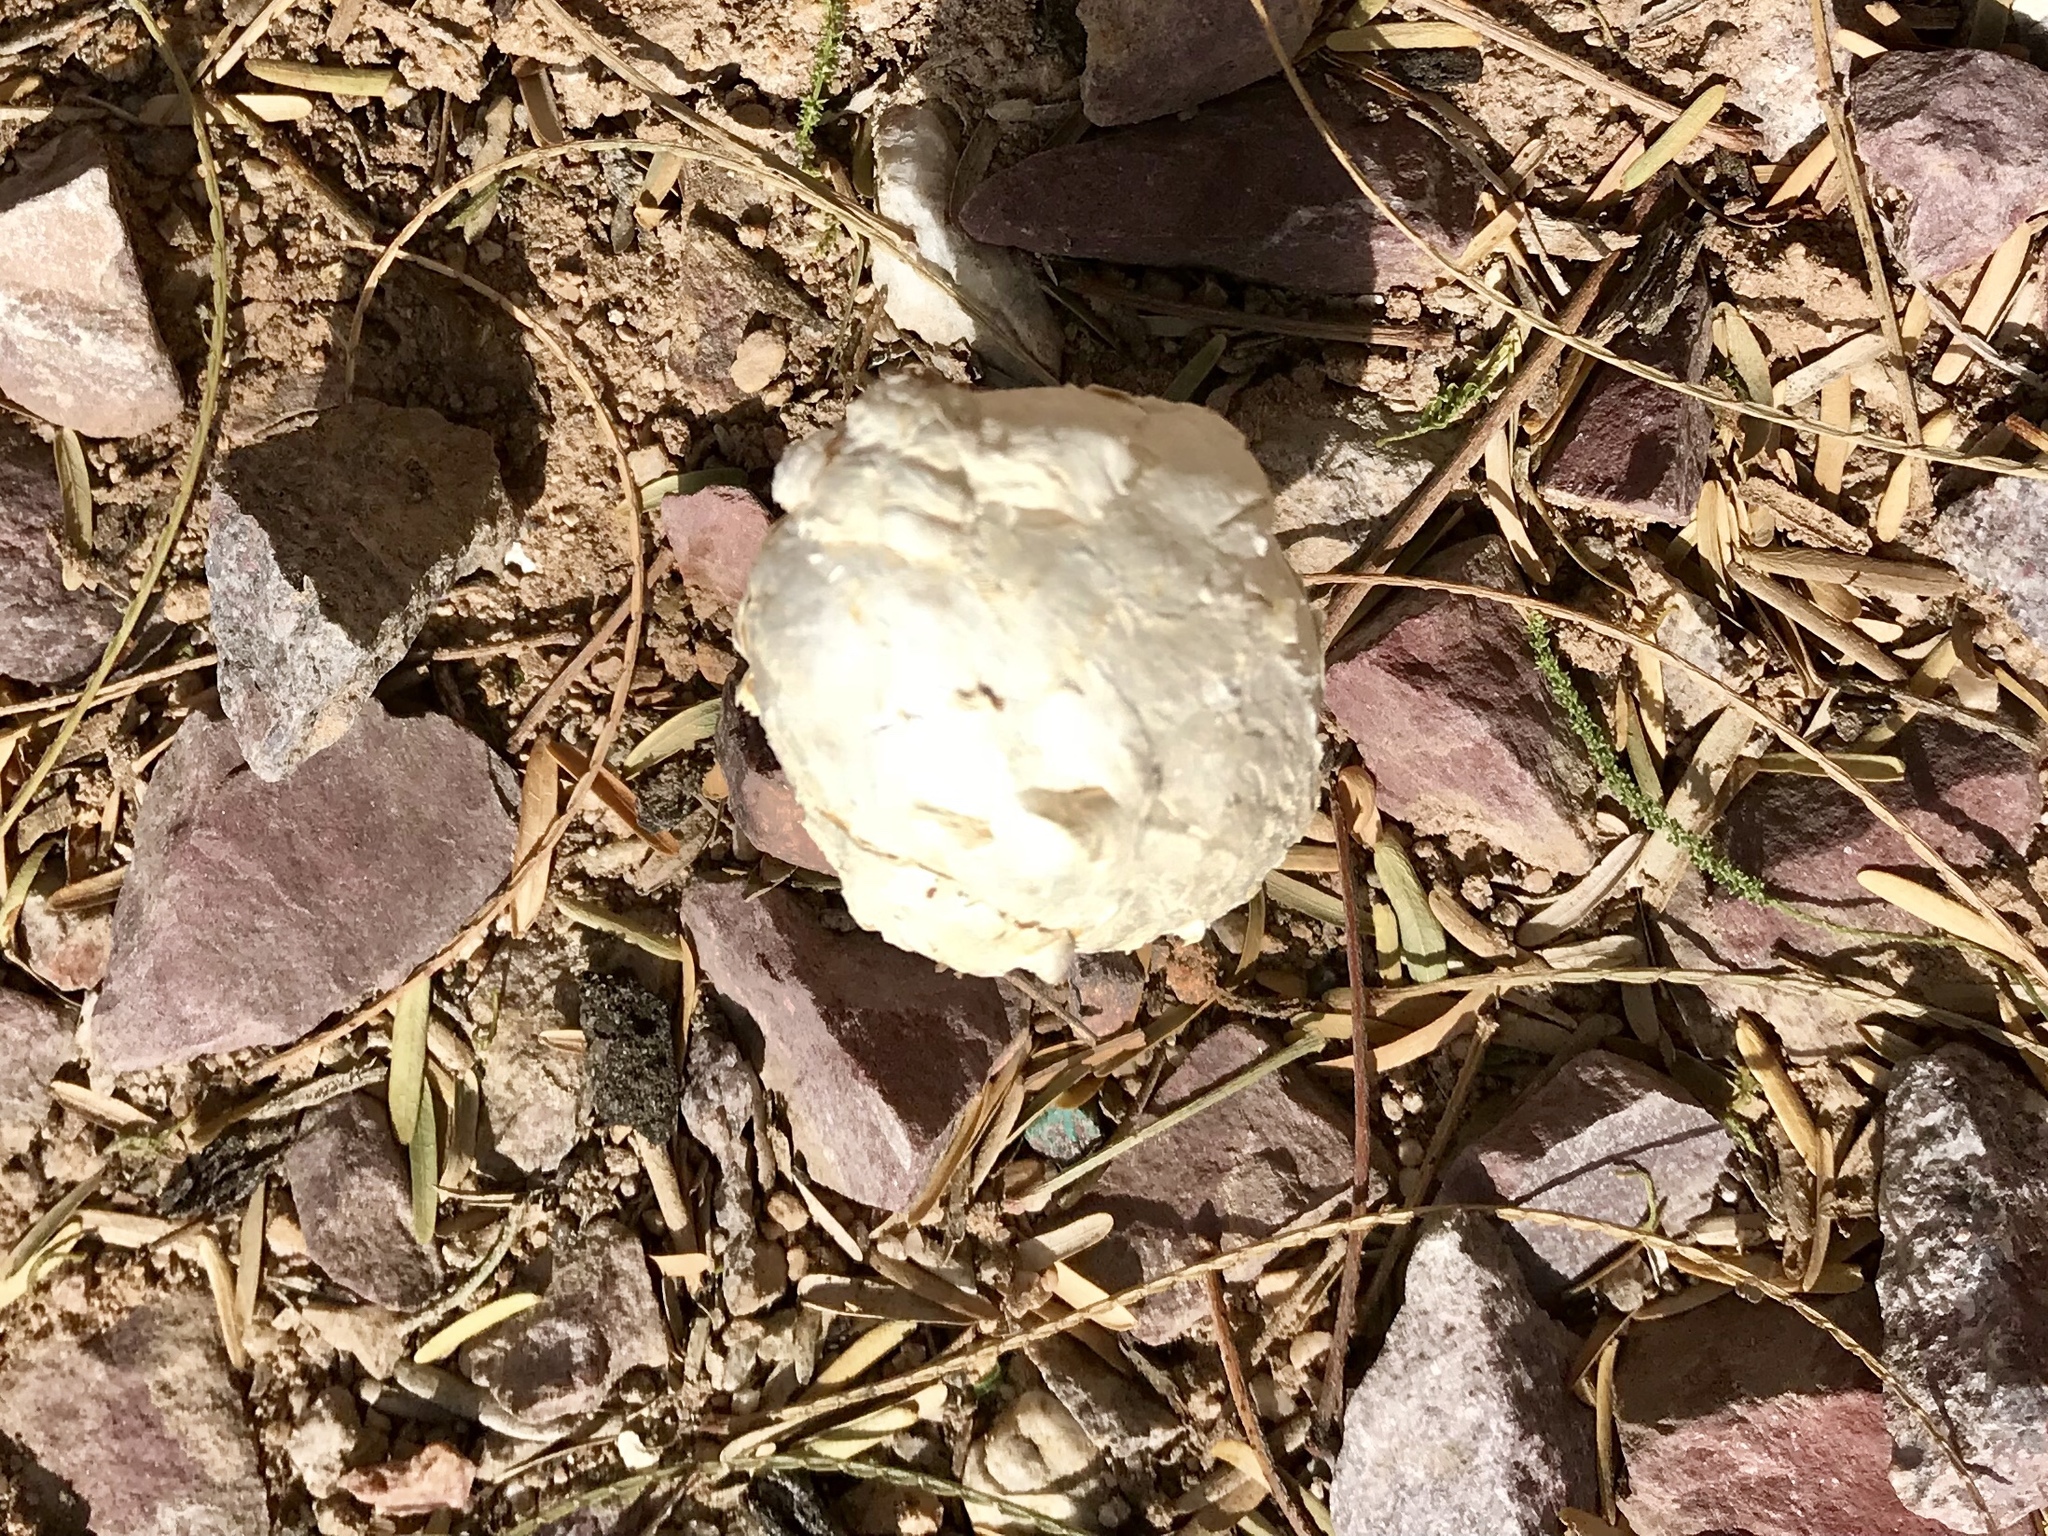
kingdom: Fungi
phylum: Basidiomycota
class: Agaricomycetes
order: Agaricales
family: Agaricaceae
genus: Podaxis
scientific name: Podaxis pistillaris
